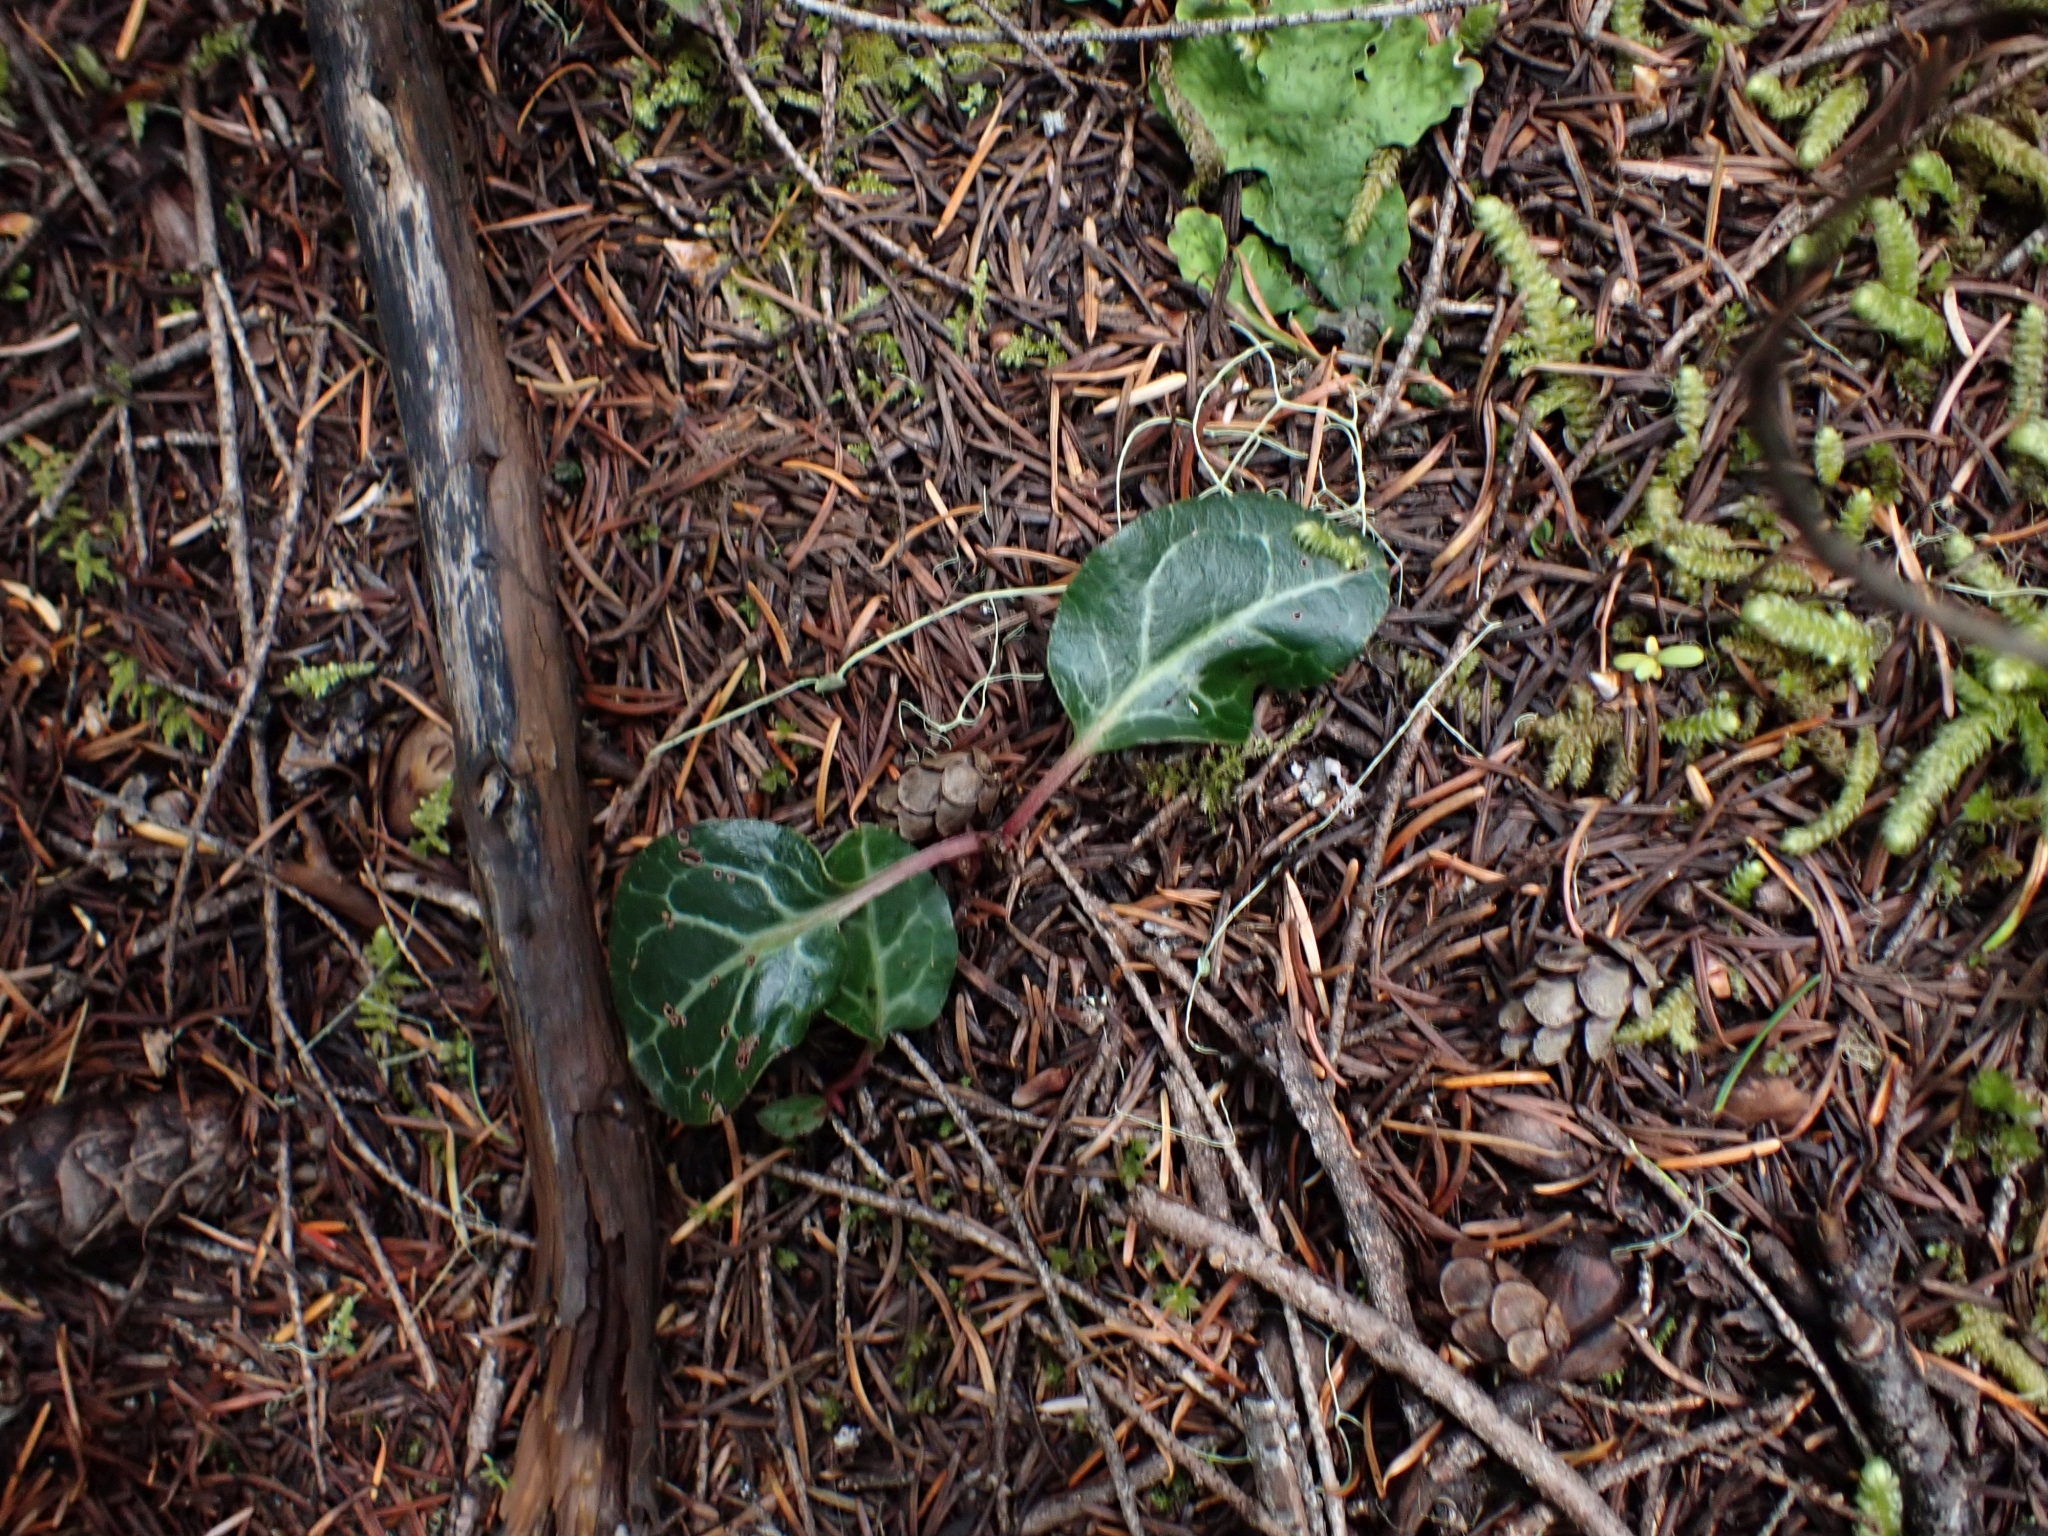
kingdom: Plantae
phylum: Tracheophyta
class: Magnoliopsida
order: Ericales
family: Ericaceae
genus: Pyrola
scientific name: Pyrola picta
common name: White-vein wintergreen
